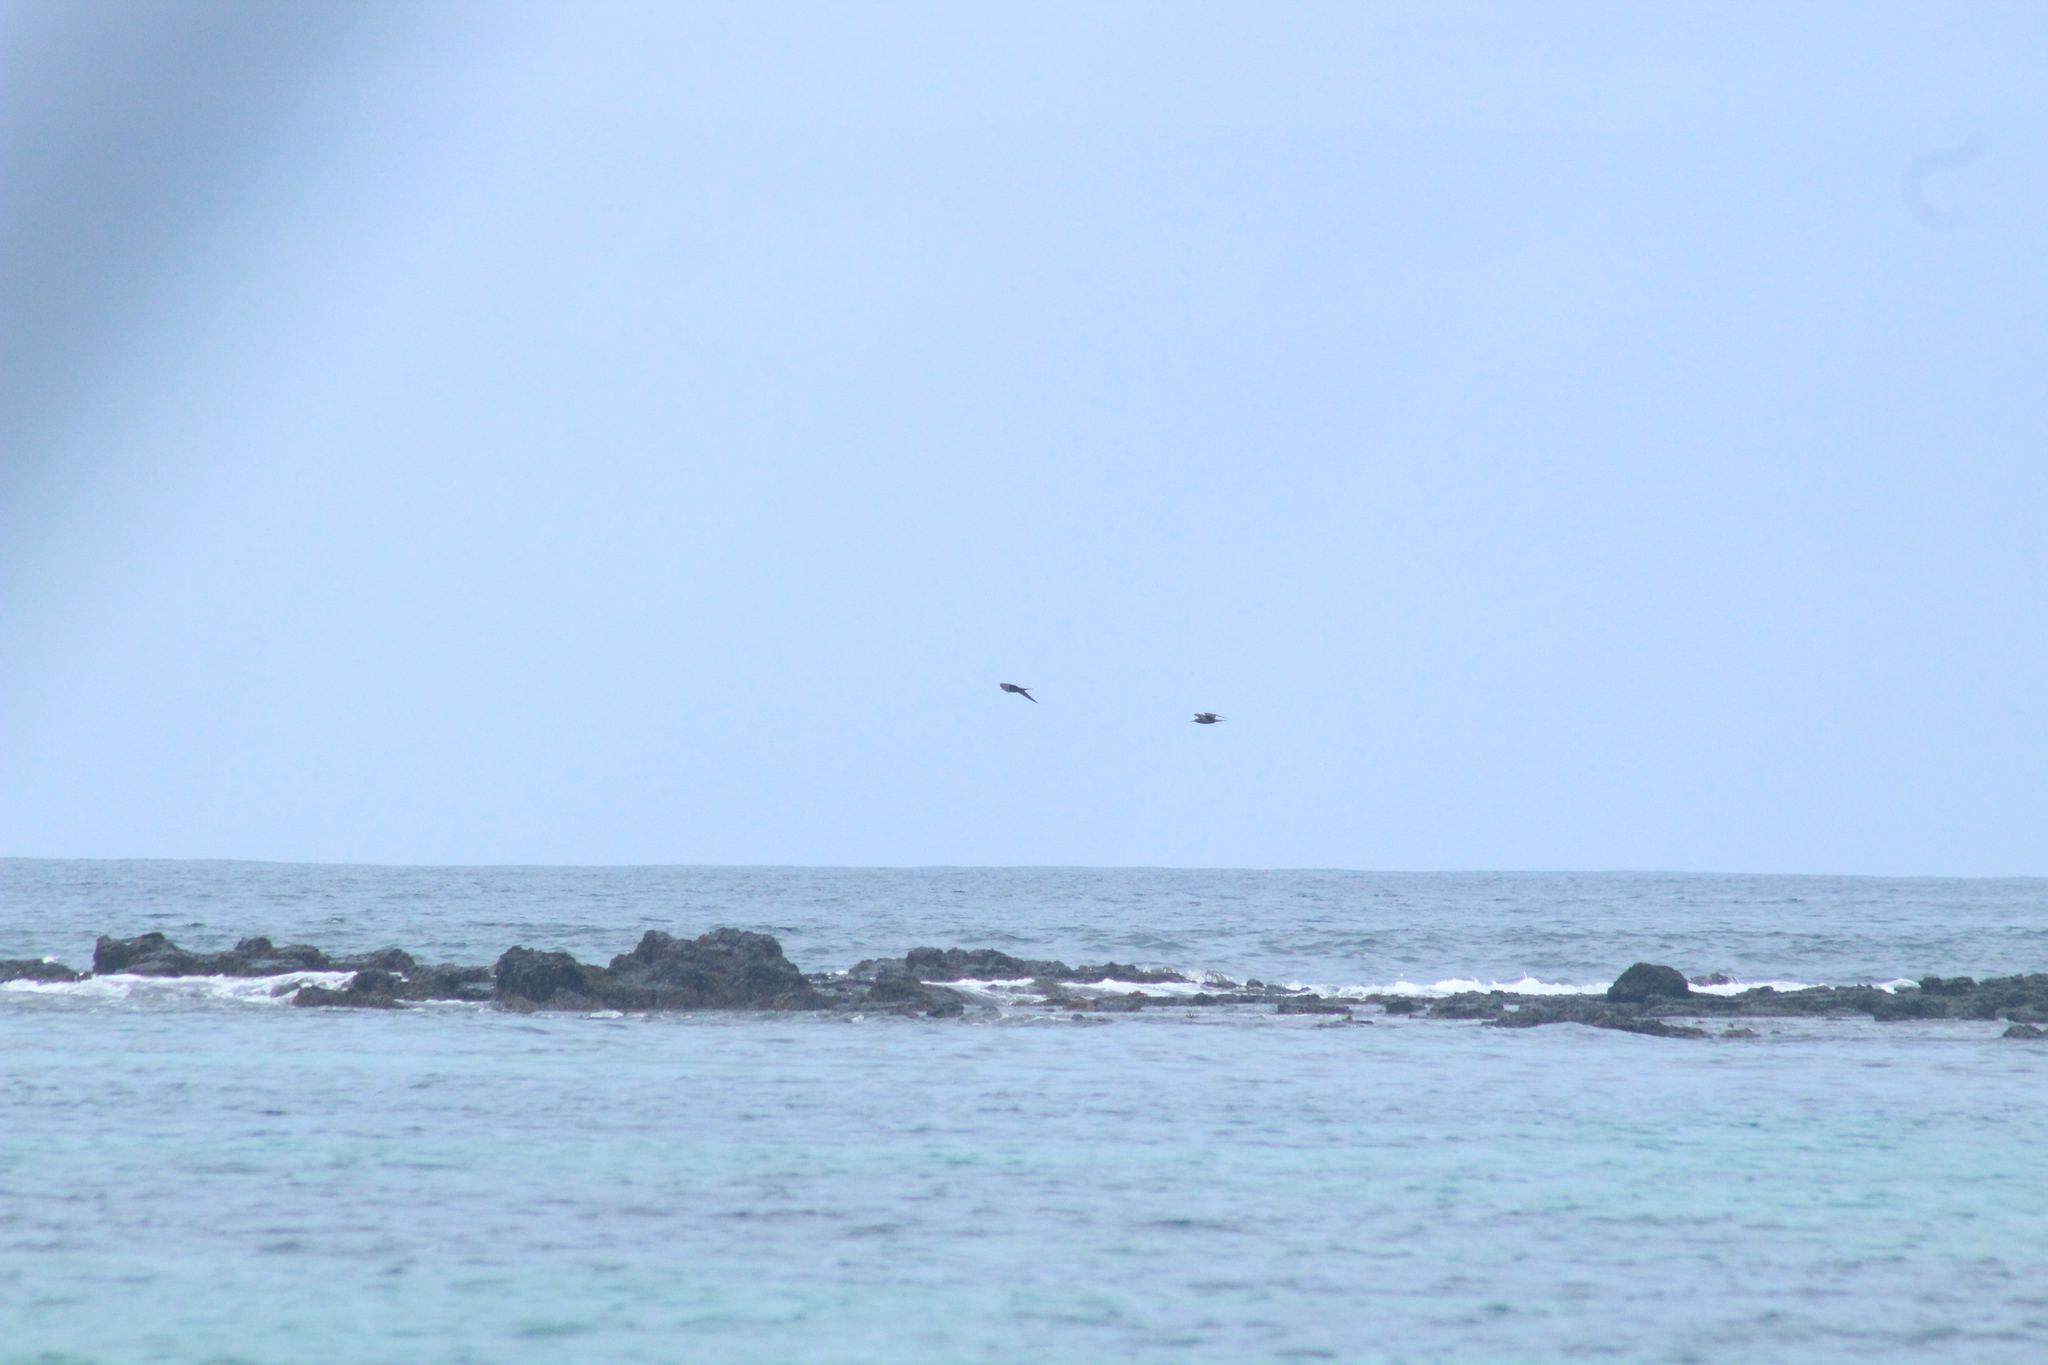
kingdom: Animalia
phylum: Chordata
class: Aves
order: Charadriiformes
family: Laridae
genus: Anous
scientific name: Anous stolidus
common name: Brown noddy
